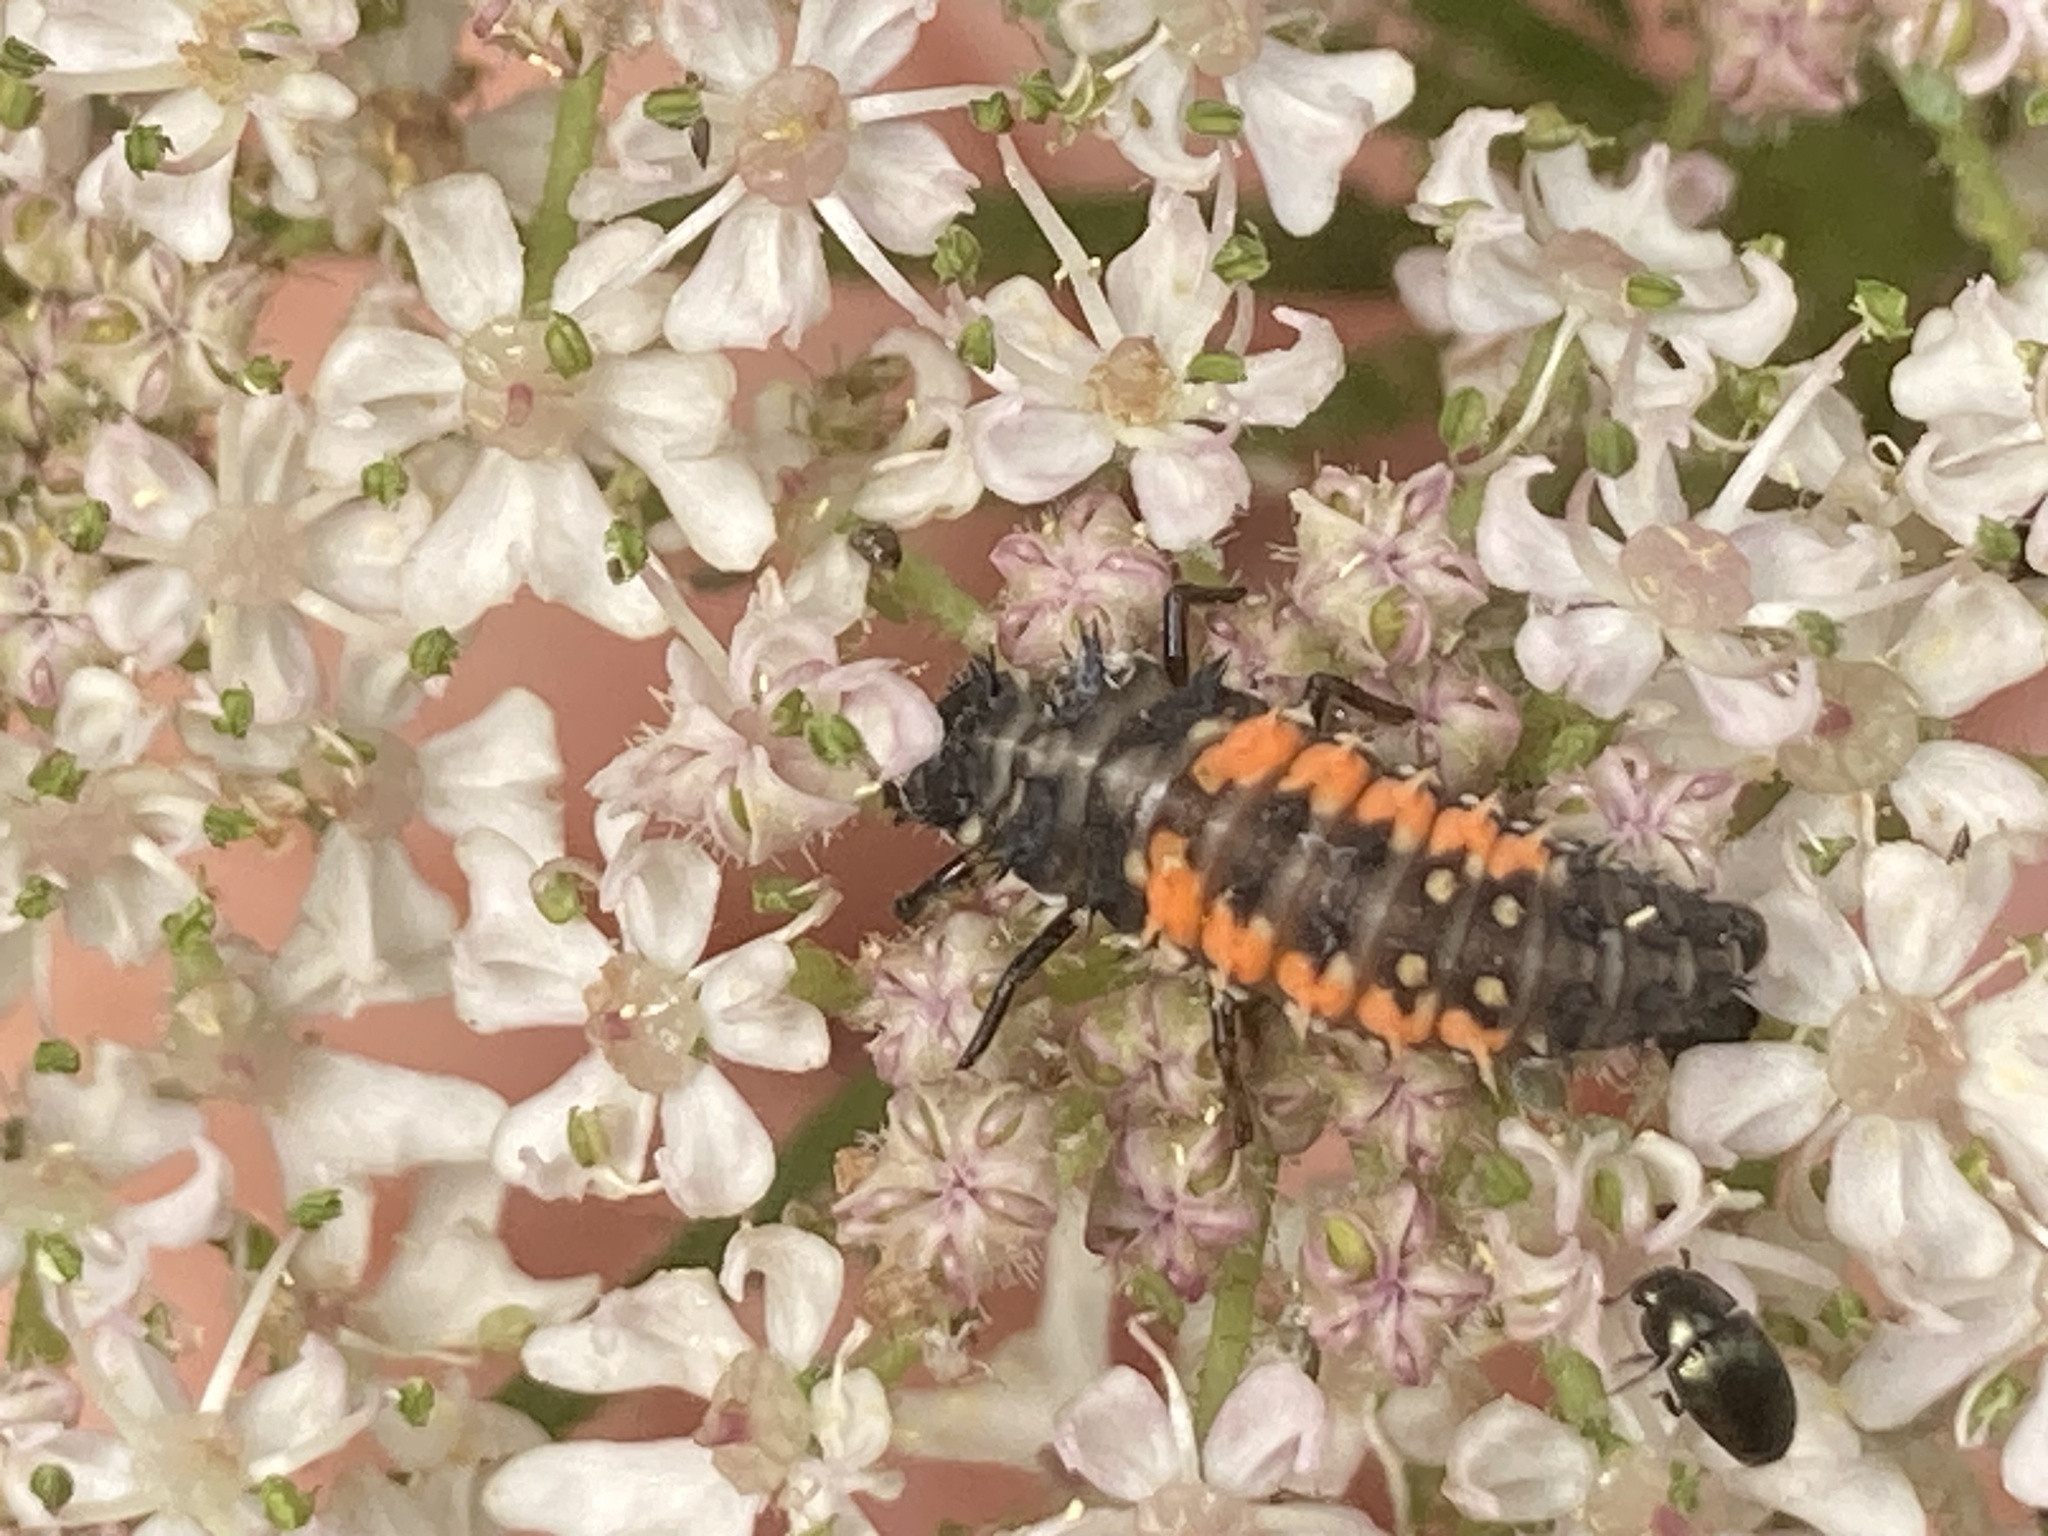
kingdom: Animalia
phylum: Arthropoda
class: Insecta
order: Coleoptera
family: Coccinellidae
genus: Harmonia
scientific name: Harmonia axyridis
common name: Harlequin ladybird
